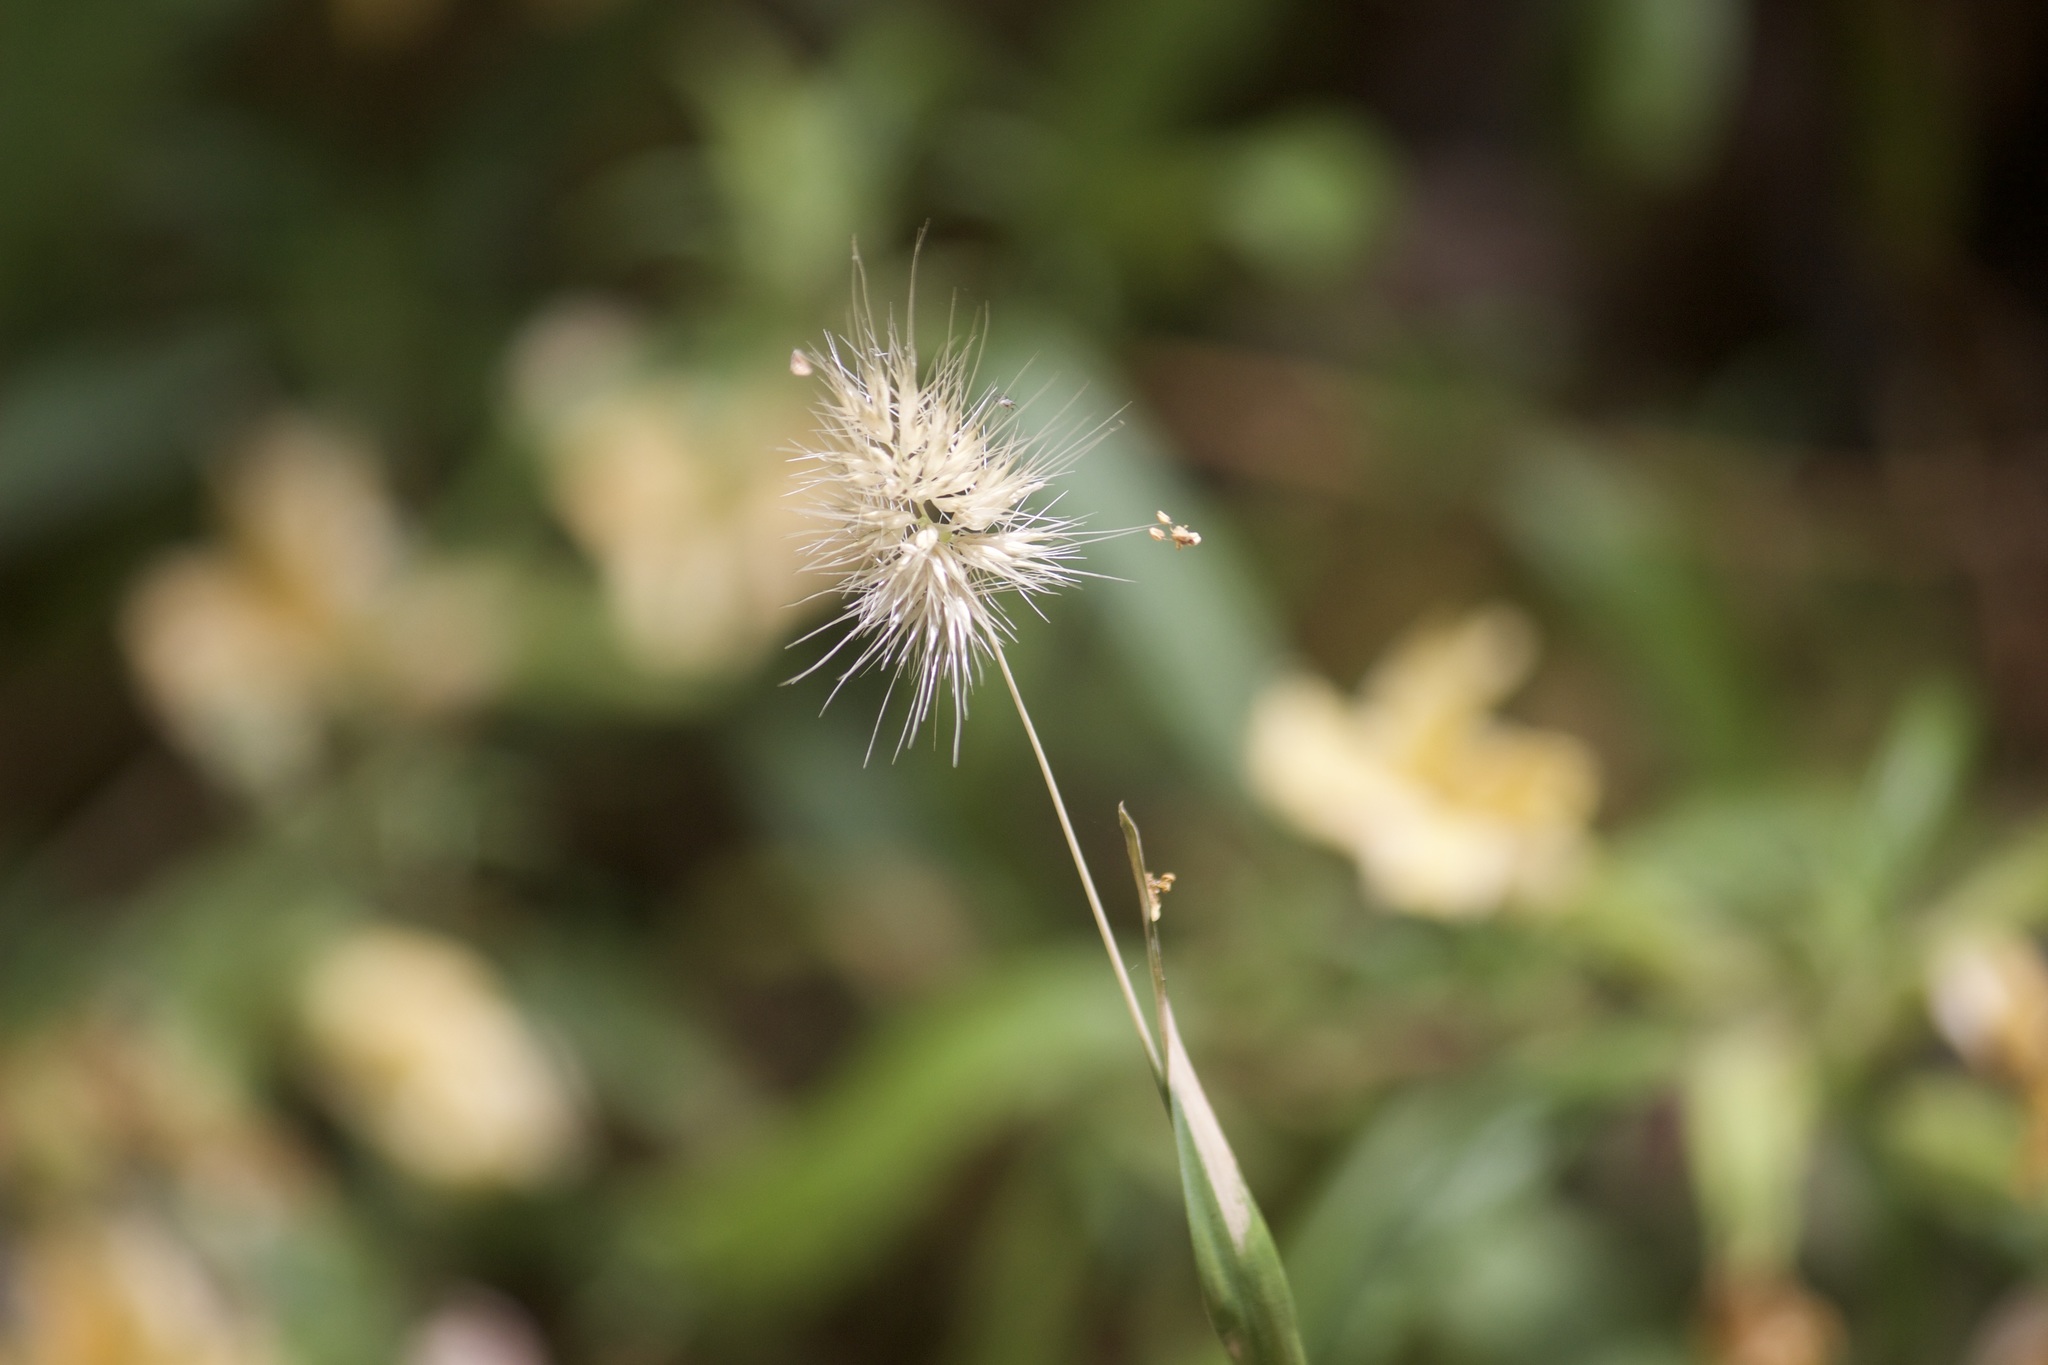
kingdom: Plantae
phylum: Tracheophyta
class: Liliopsida
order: Poales
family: Poaceae
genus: Cynosurus
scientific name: Cynosurus echinatus
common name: Rough dog's-tail
